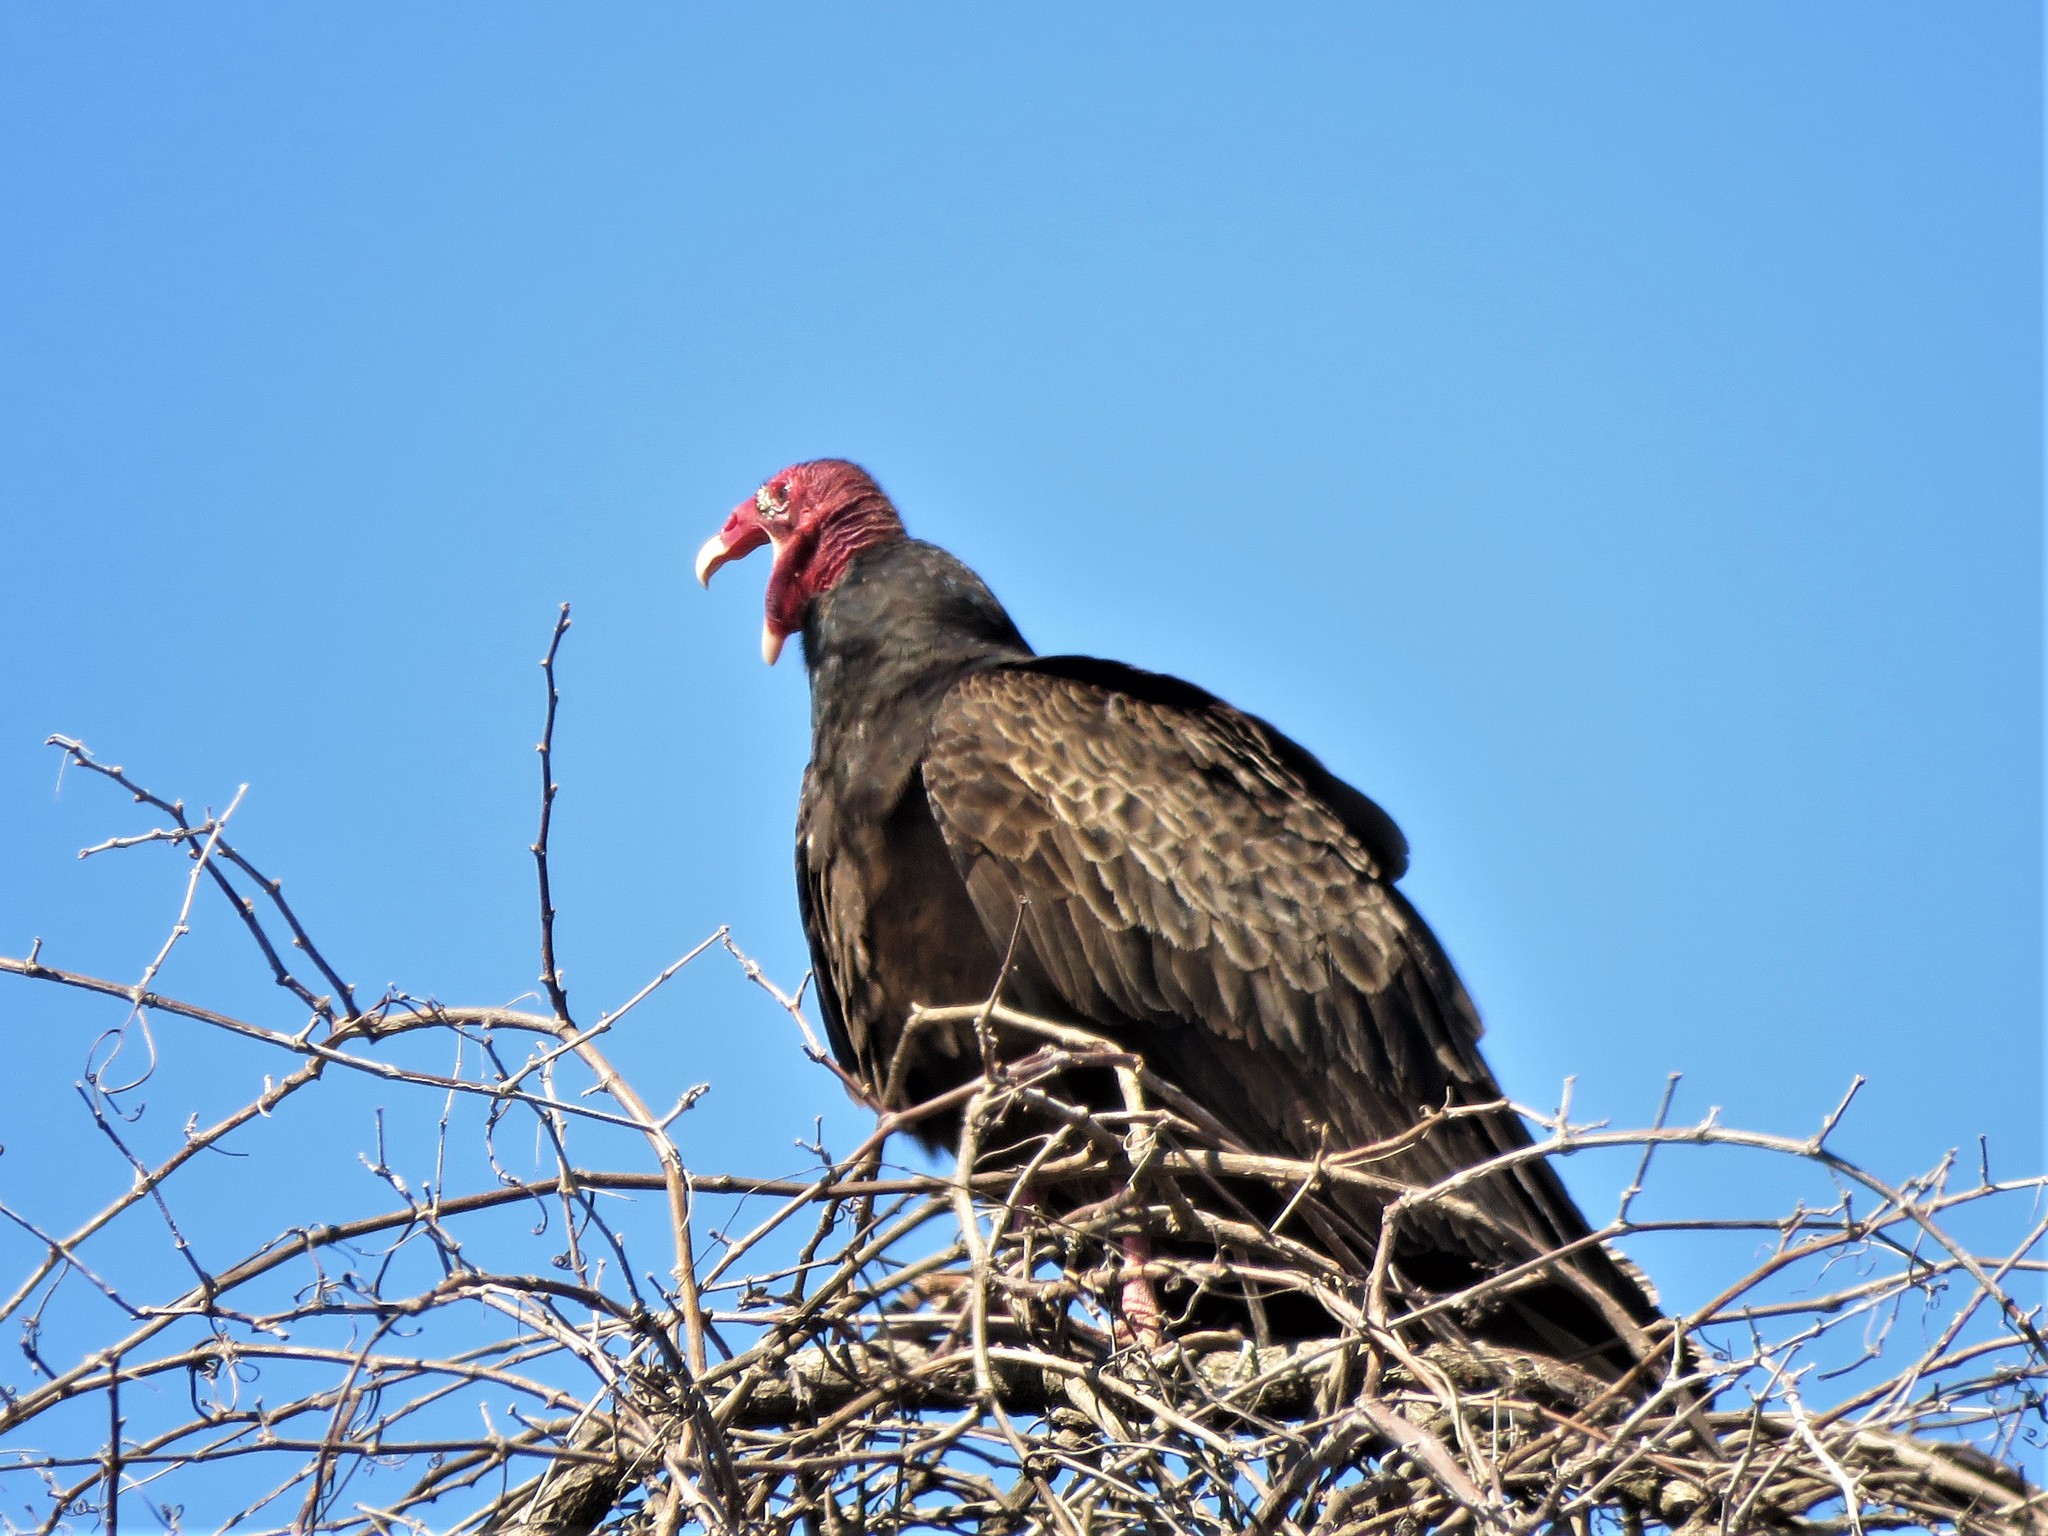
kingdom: Animalia
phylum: Chordata
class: Aves
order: Accipitriformes
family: Cathartidae
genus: Cathartes
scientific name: Cathartes aura
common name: Turkey vulture
